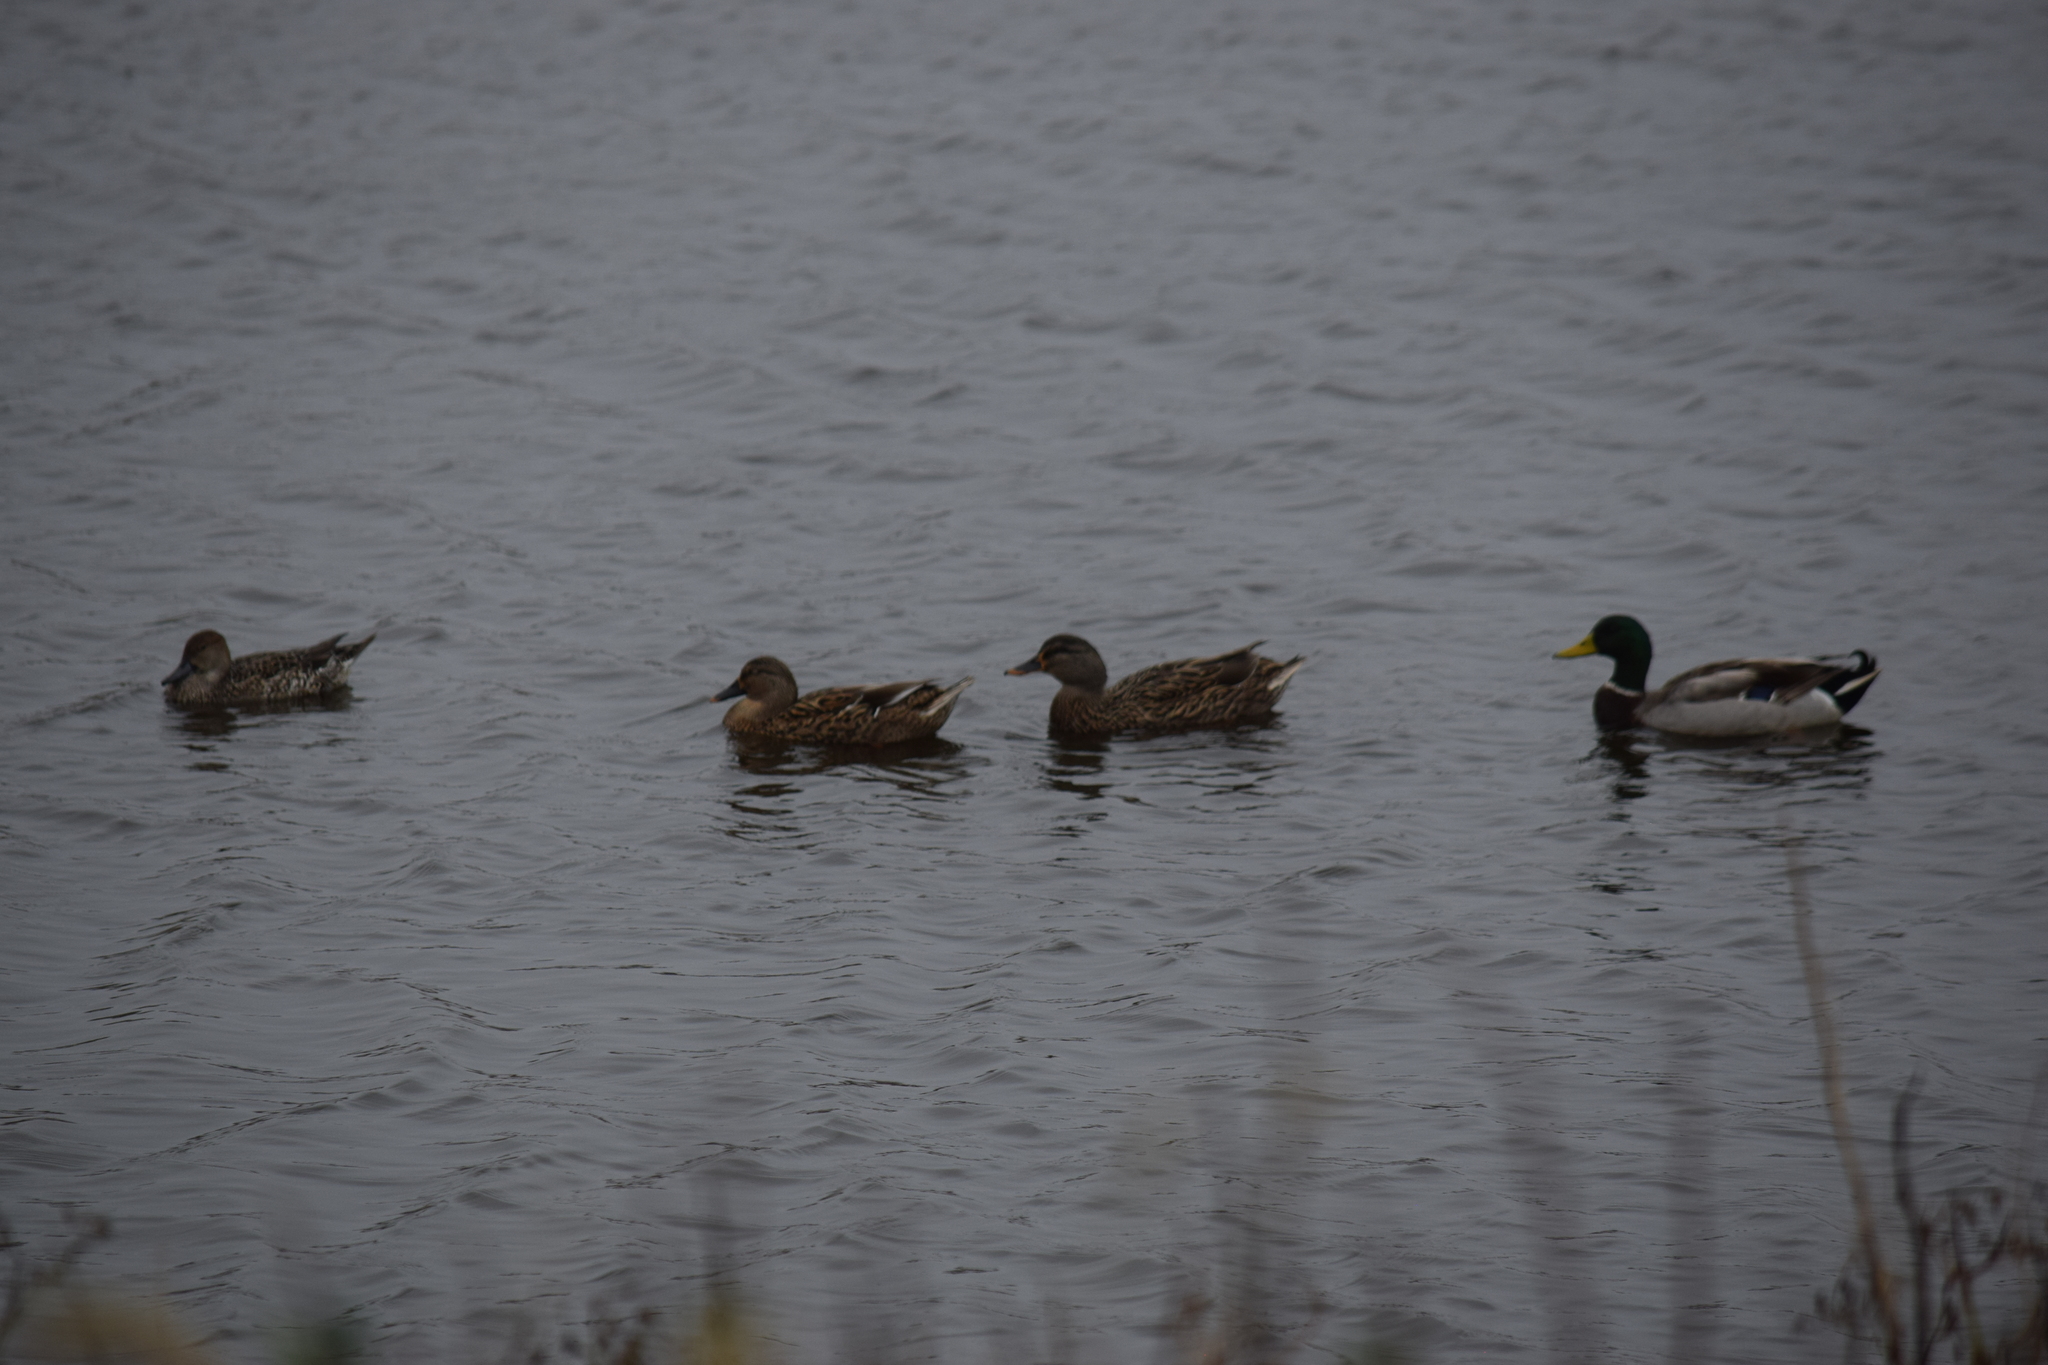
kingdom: Animalia
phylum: Chordata
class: Aves
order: Anseriformes
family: Anatidae
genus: Anas
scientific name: Anas platyrhynchos
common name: Mallard
